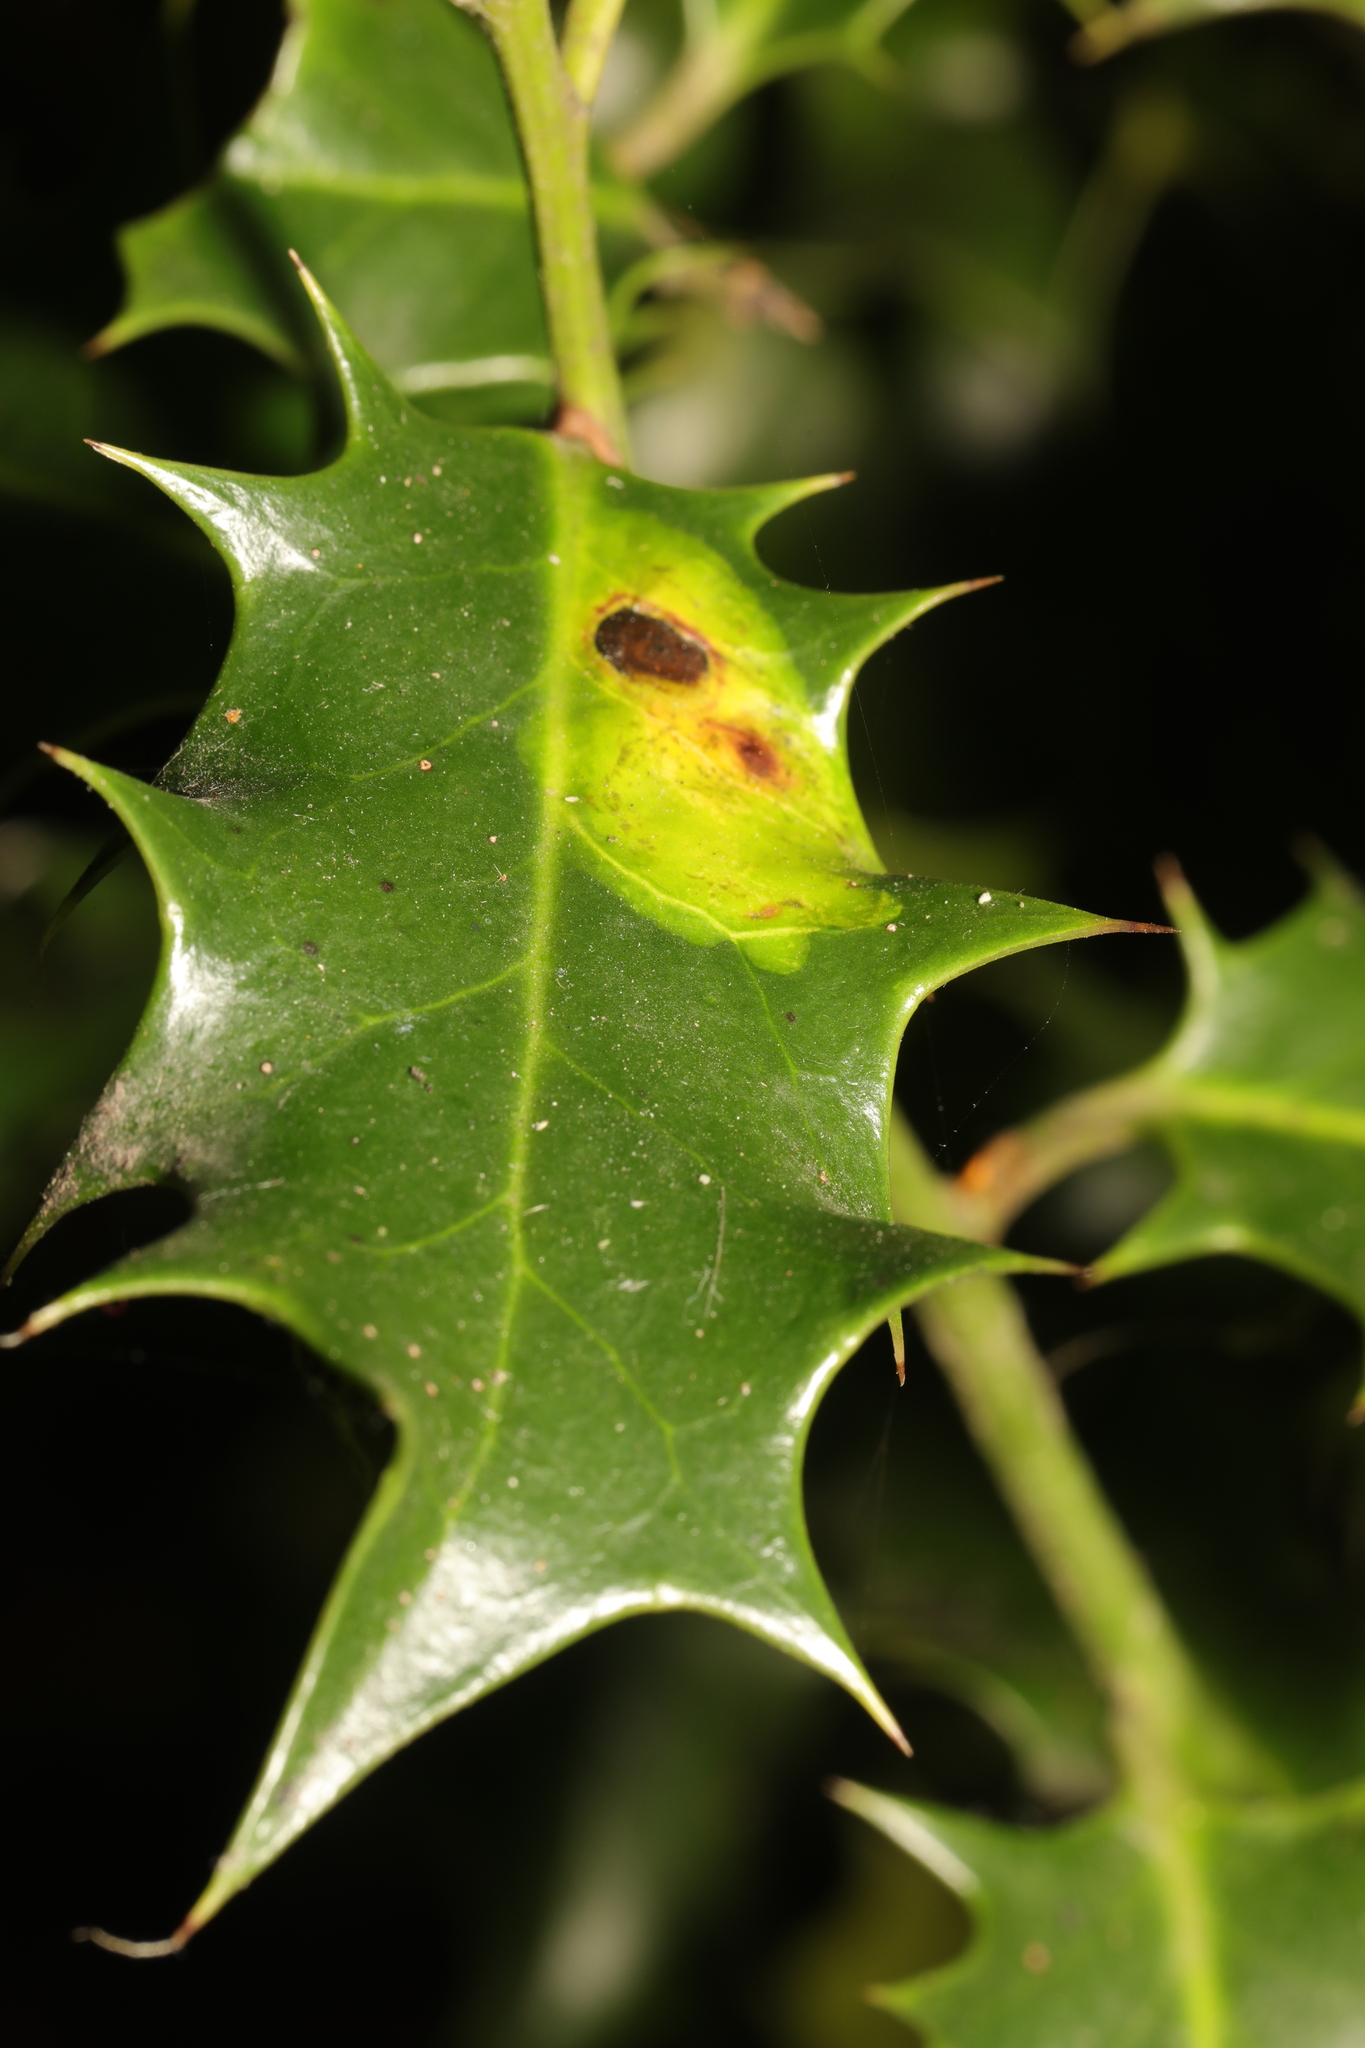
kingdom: Animalia
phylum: Arthropoda
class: Insecta
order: Diptera
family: Agromyzidae
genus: Phytomyza
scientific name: Phytomyza ilicis
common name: Holly leafminer
